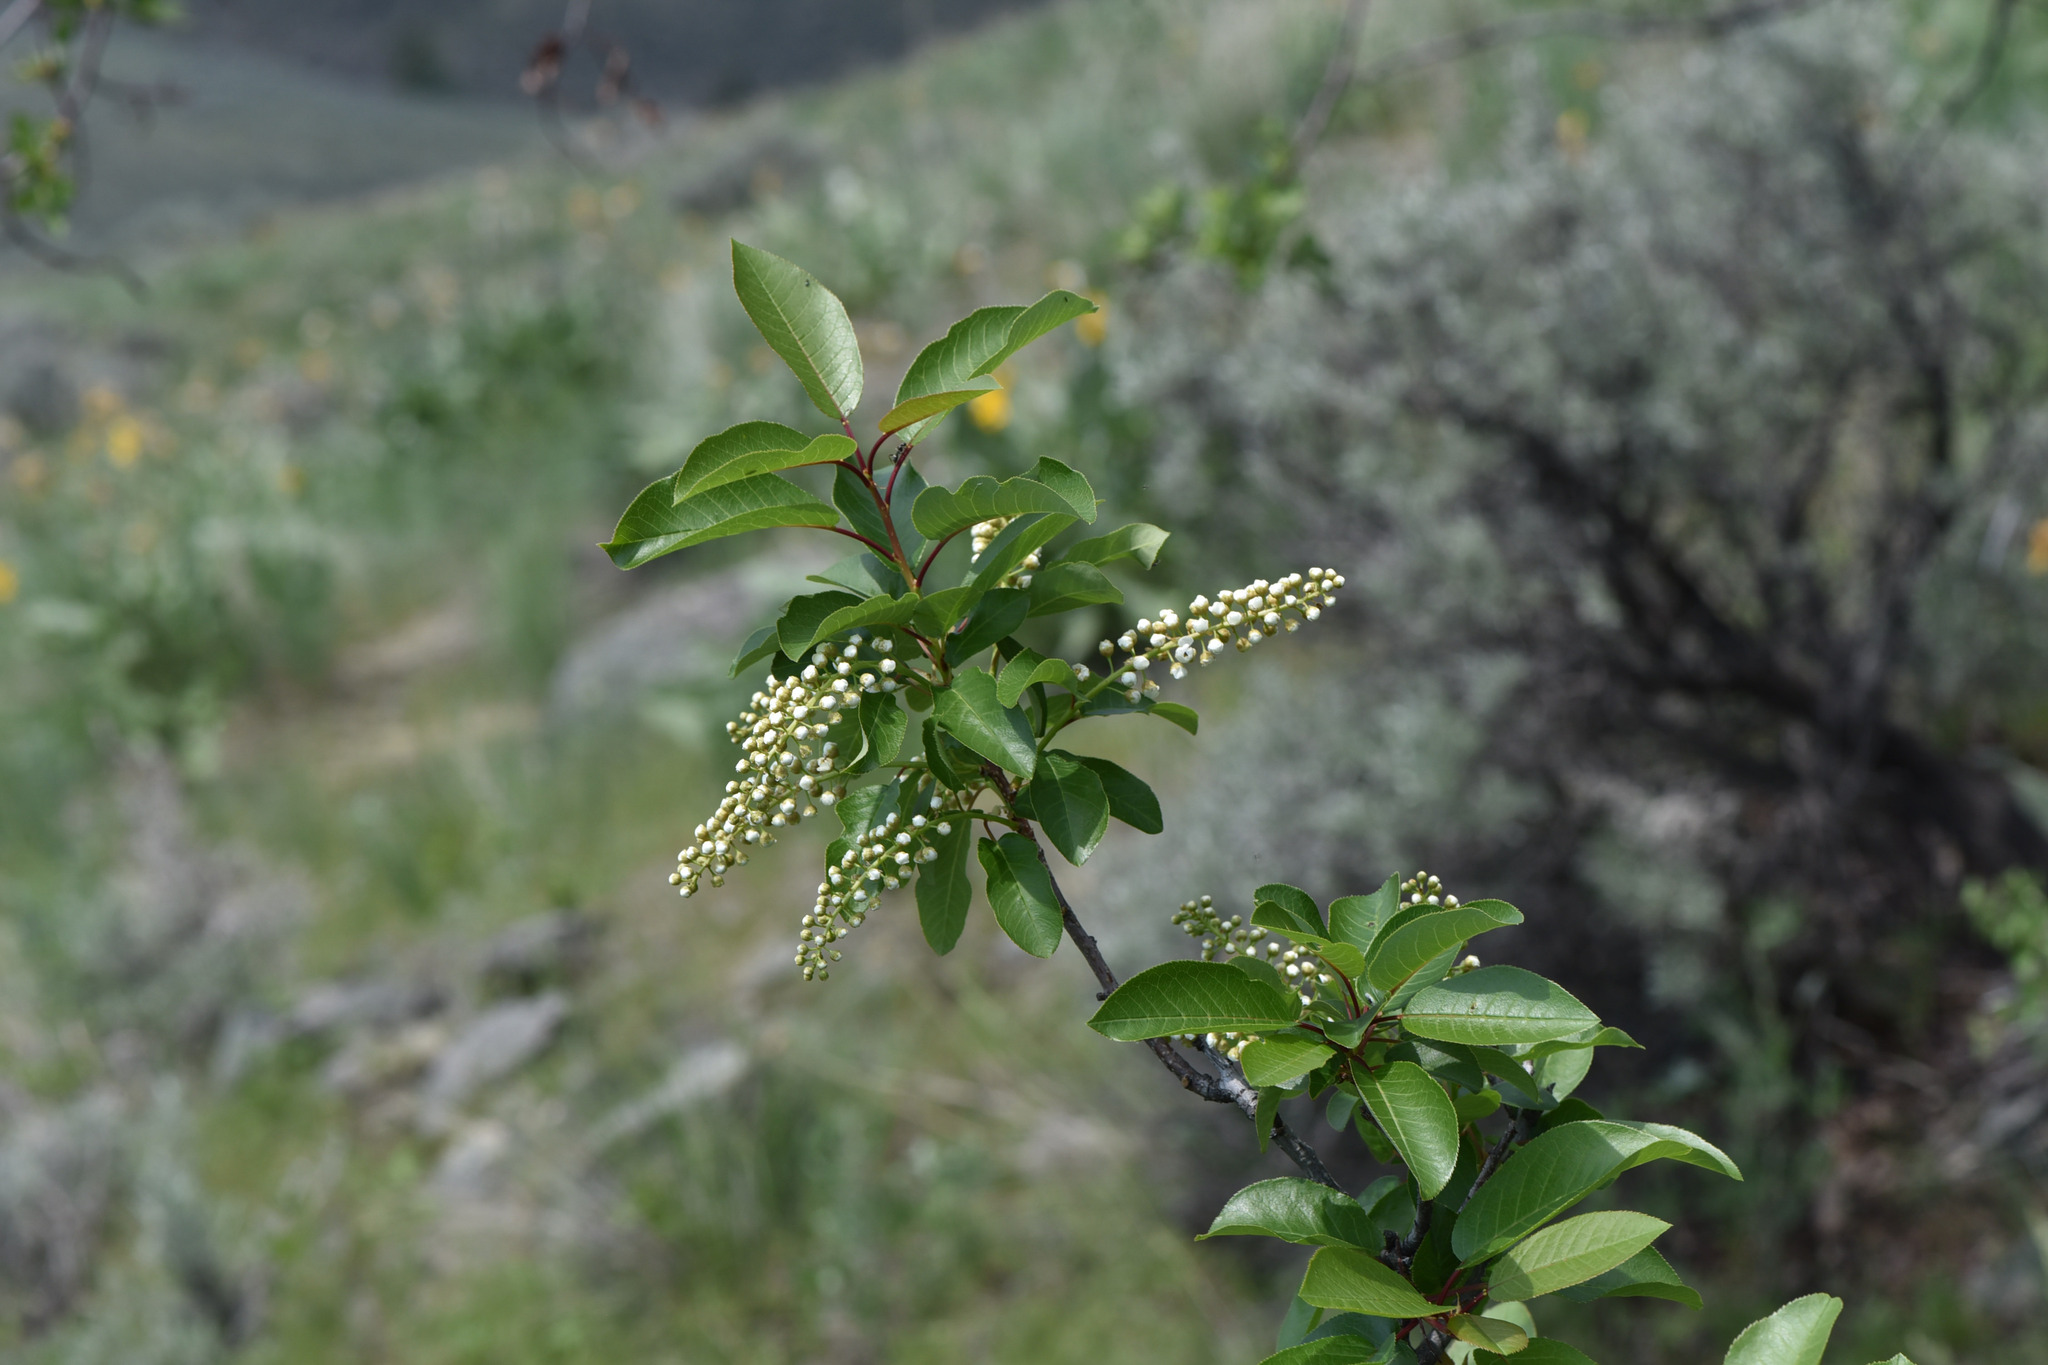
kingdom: Plantae
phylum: Tracheophyta
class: Magnoliopsida
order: Rosales
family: Rosaceae
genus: Prunus
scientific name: Prunus virginiana
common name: Chokecherry
